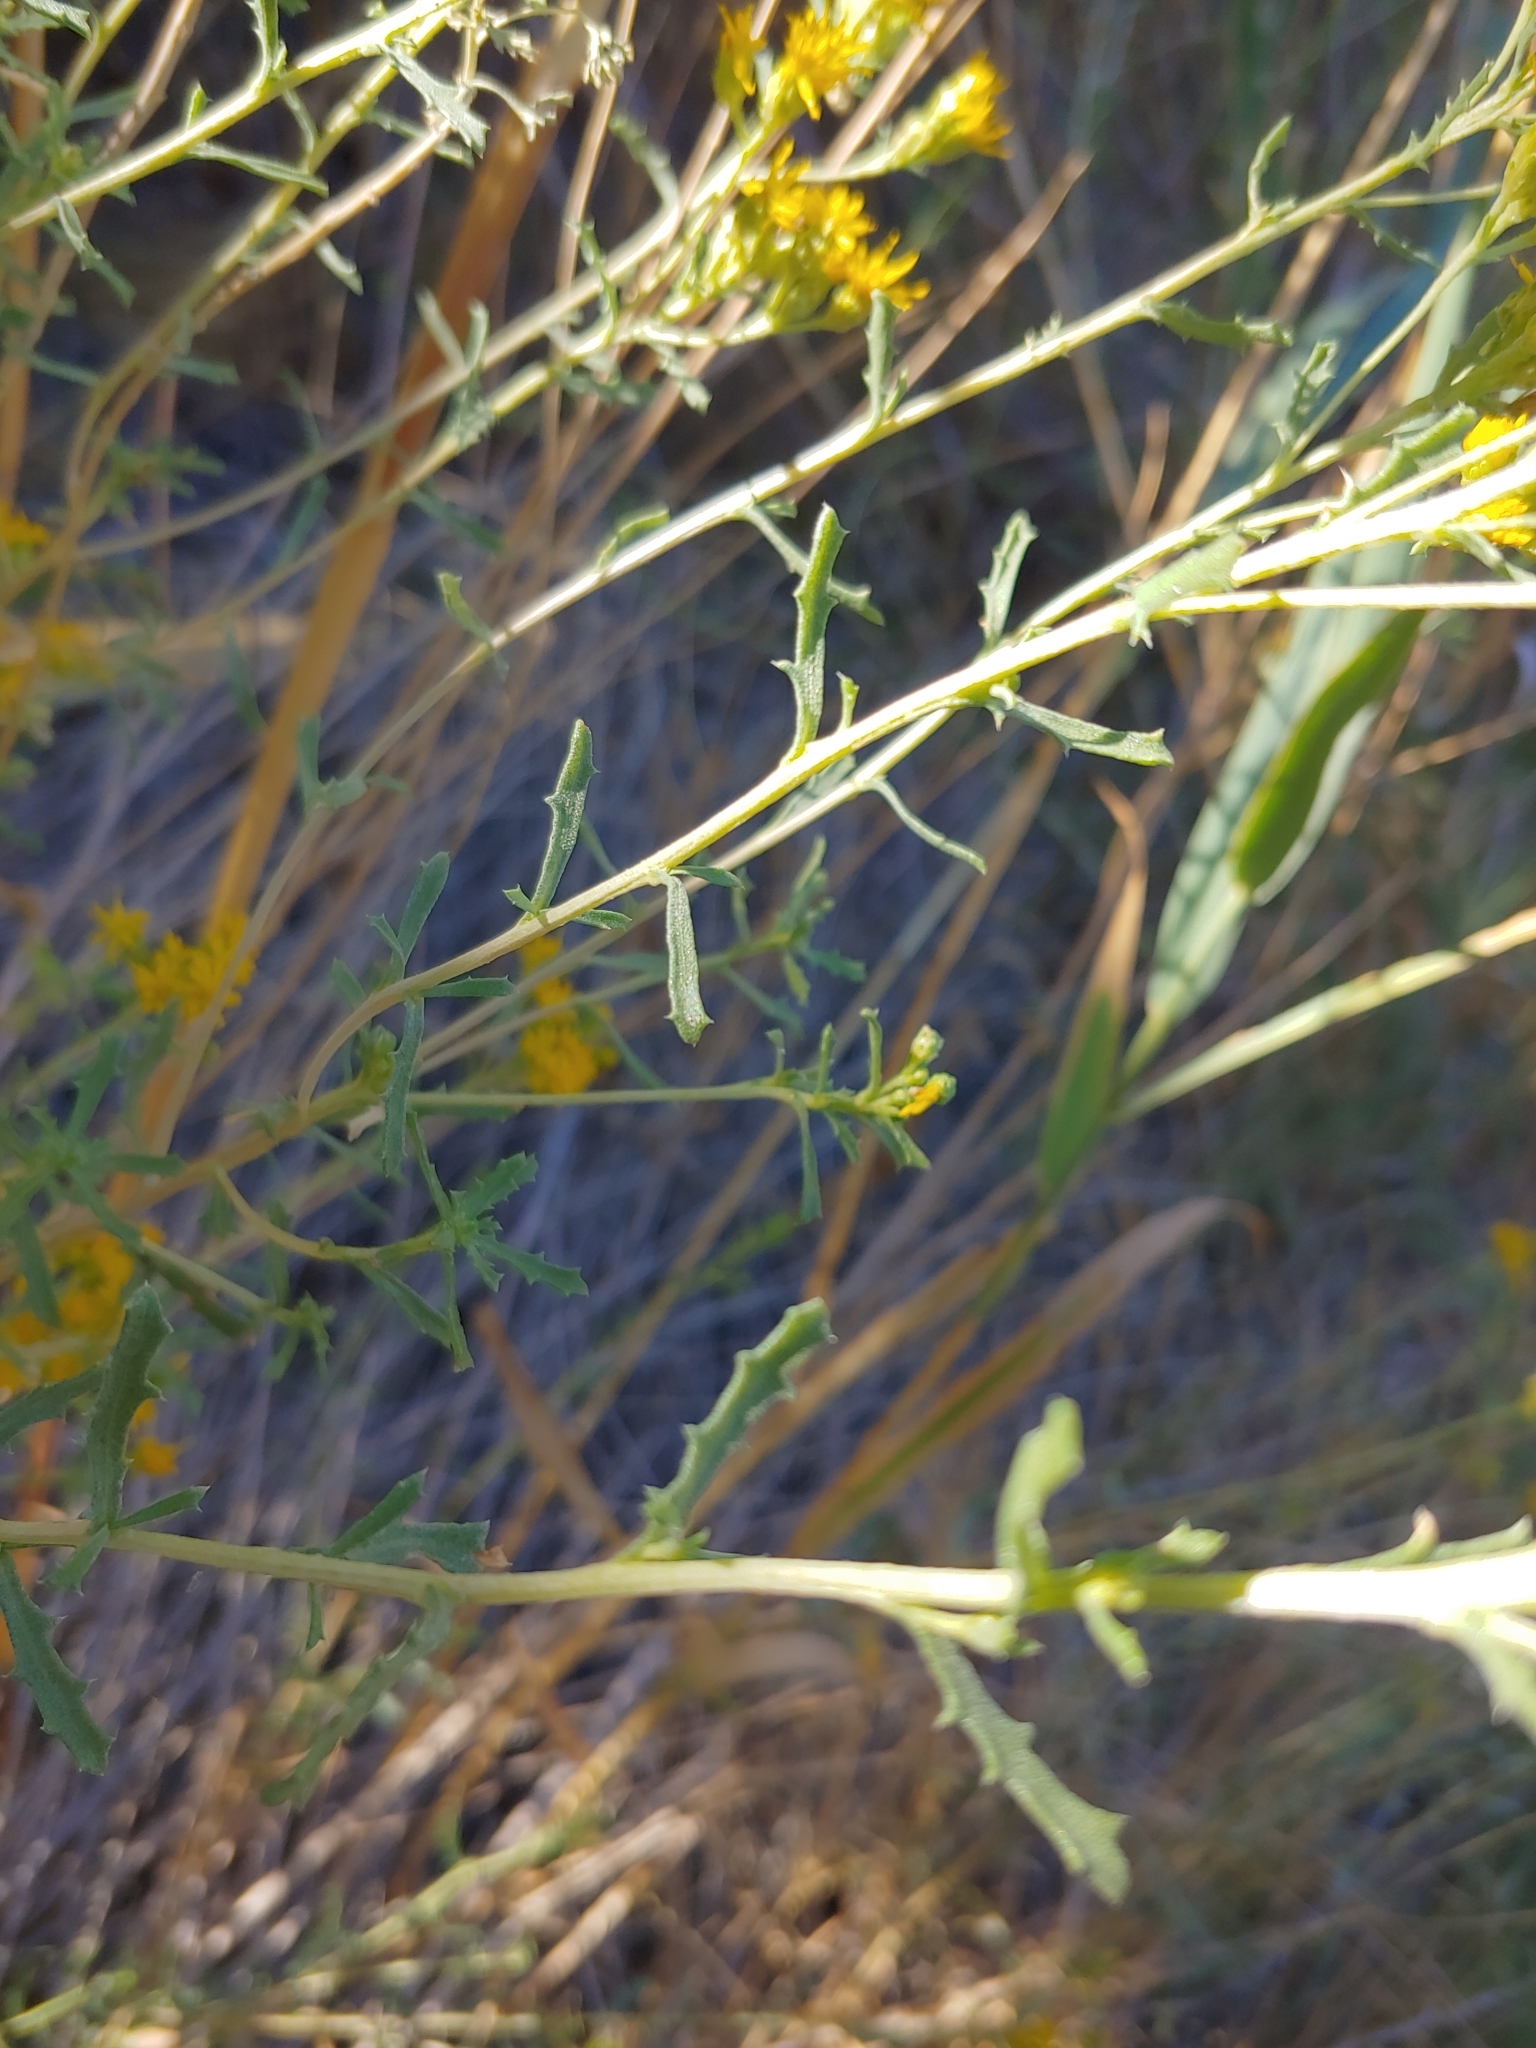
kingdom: Plantae
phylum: Tracheophyta
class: Magnoliopsida
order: Asterales
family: Asteraceae
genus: Isocoma
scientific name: Isocoma acradenia
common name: Alkali jimmyweed
